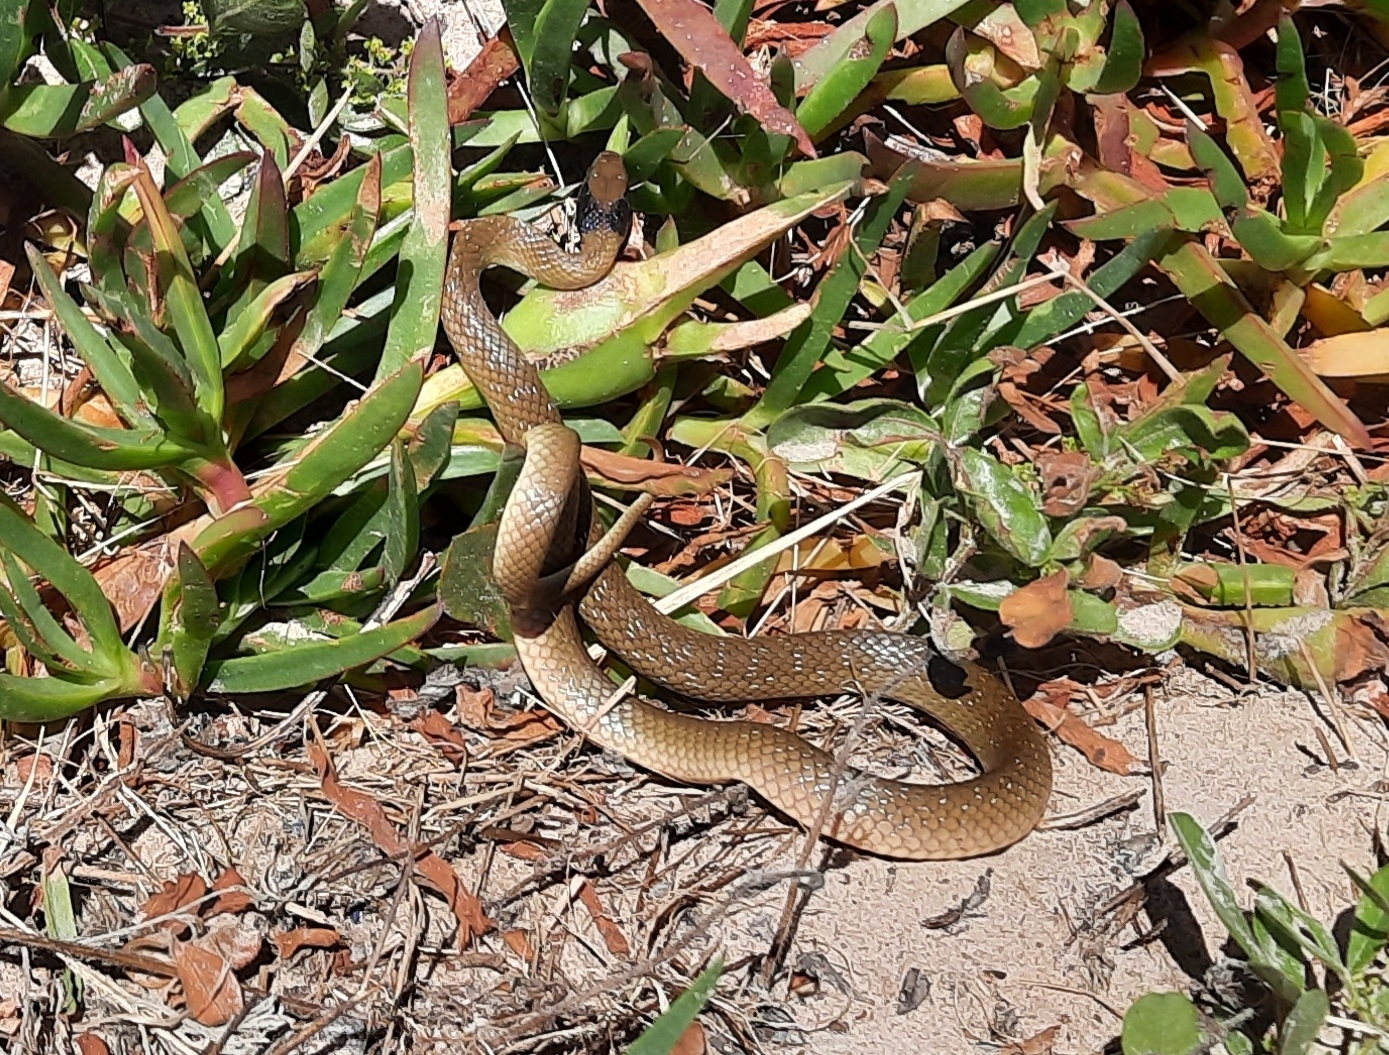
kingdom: Animalia
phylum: Chordata
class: Squamata
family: Colubridae
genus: Crotaphopeltis
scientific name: Crotaphopeltis hotamboeia
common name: Red-lipped snake
